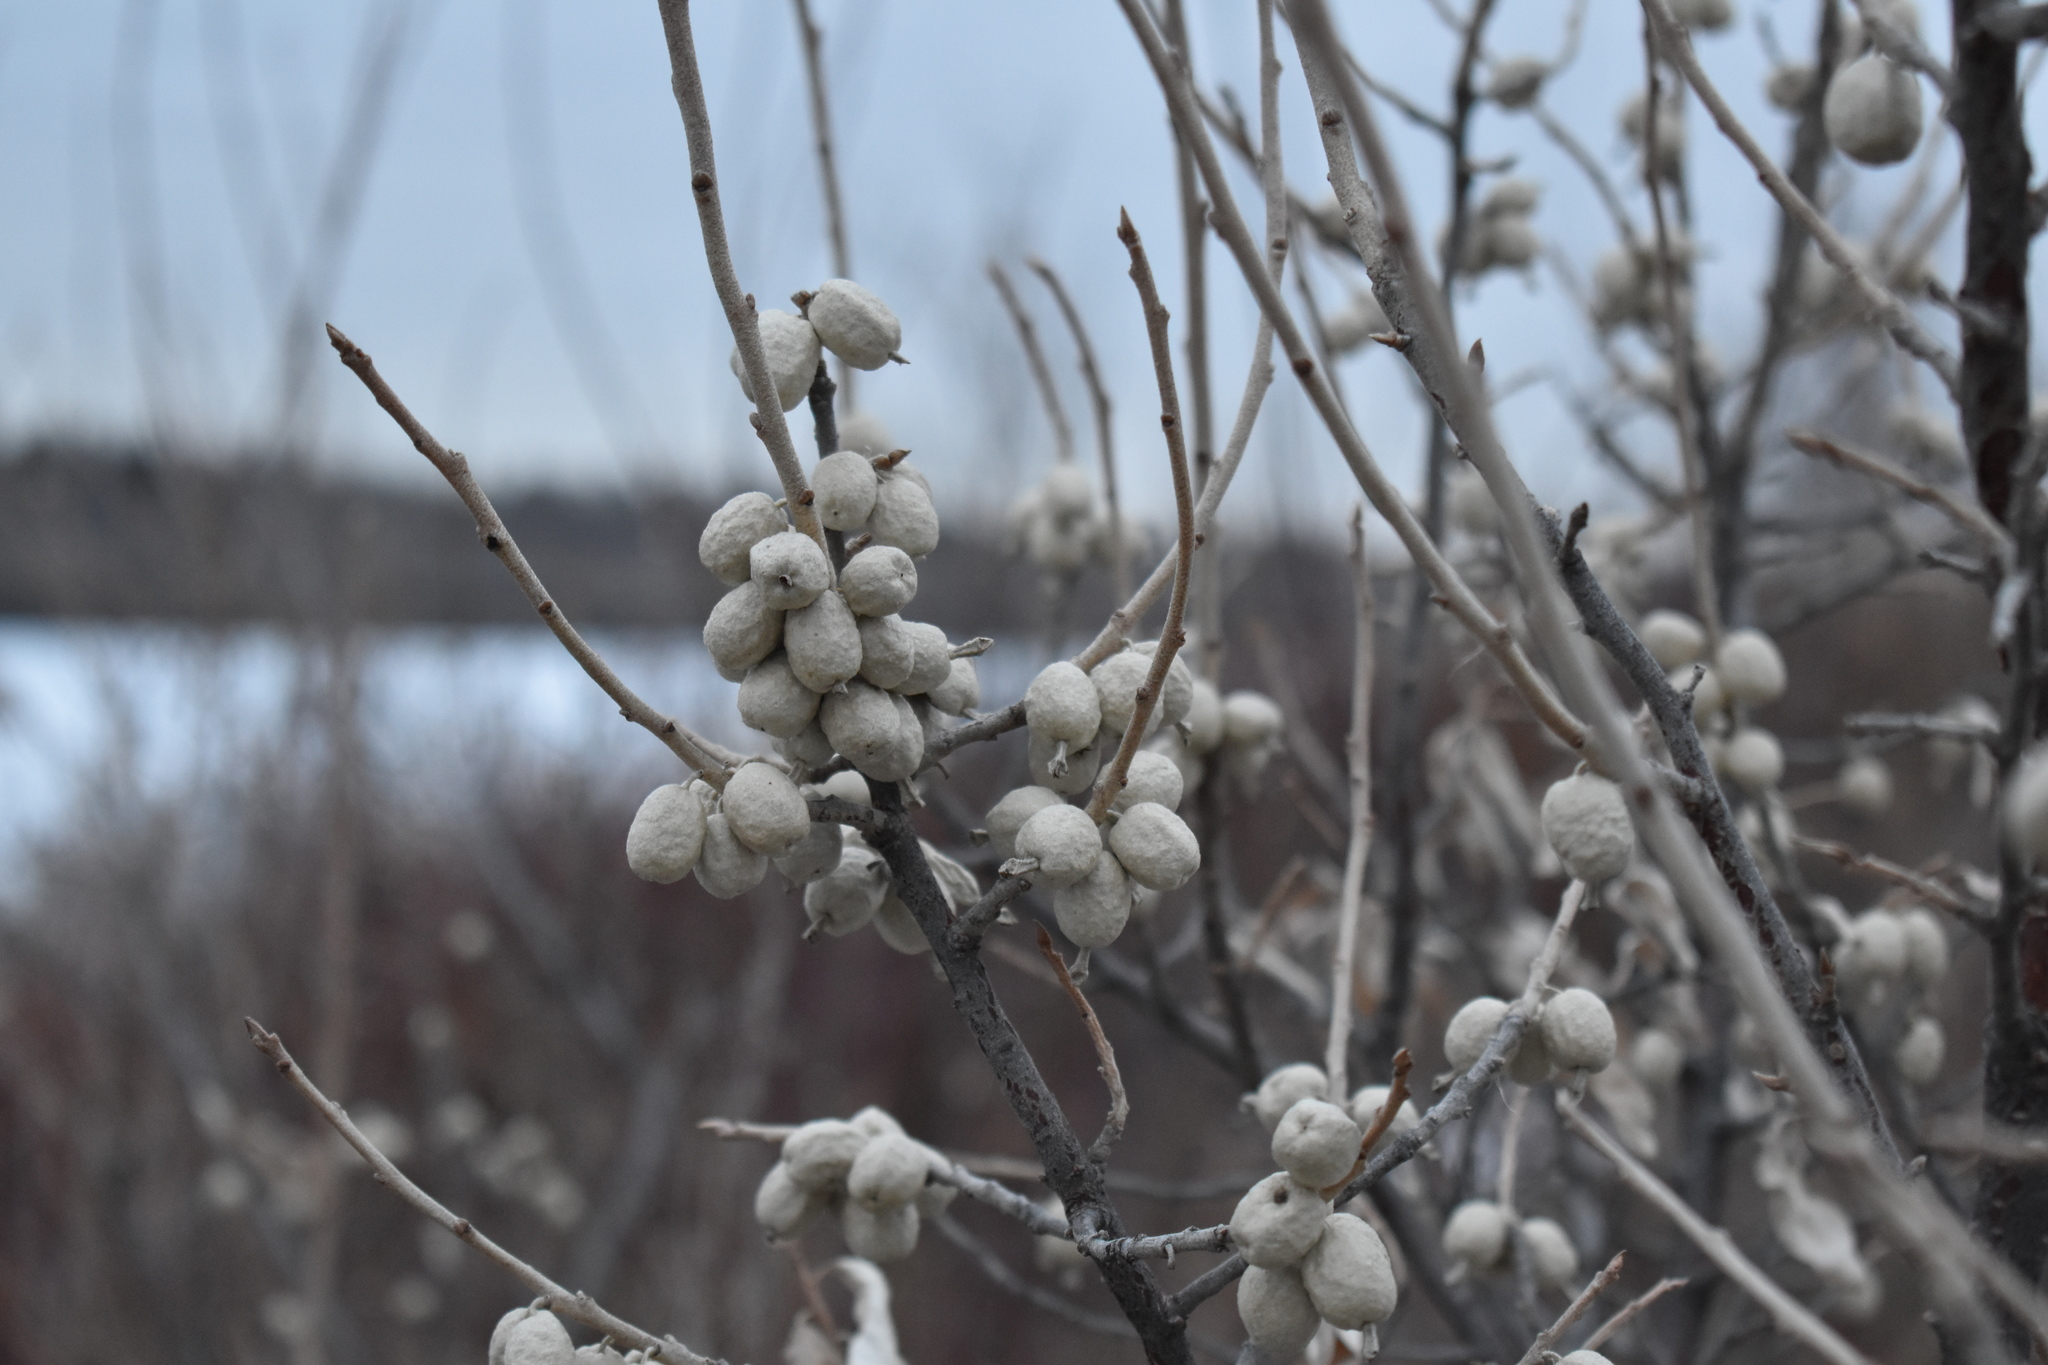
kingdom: Plantae
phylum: Tracheophyta
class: Magnoliopsida
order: Rosales
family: Elaeagnaceae
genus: Elaeagnus
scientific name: Elaeagnus commutata
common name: Silverberry
